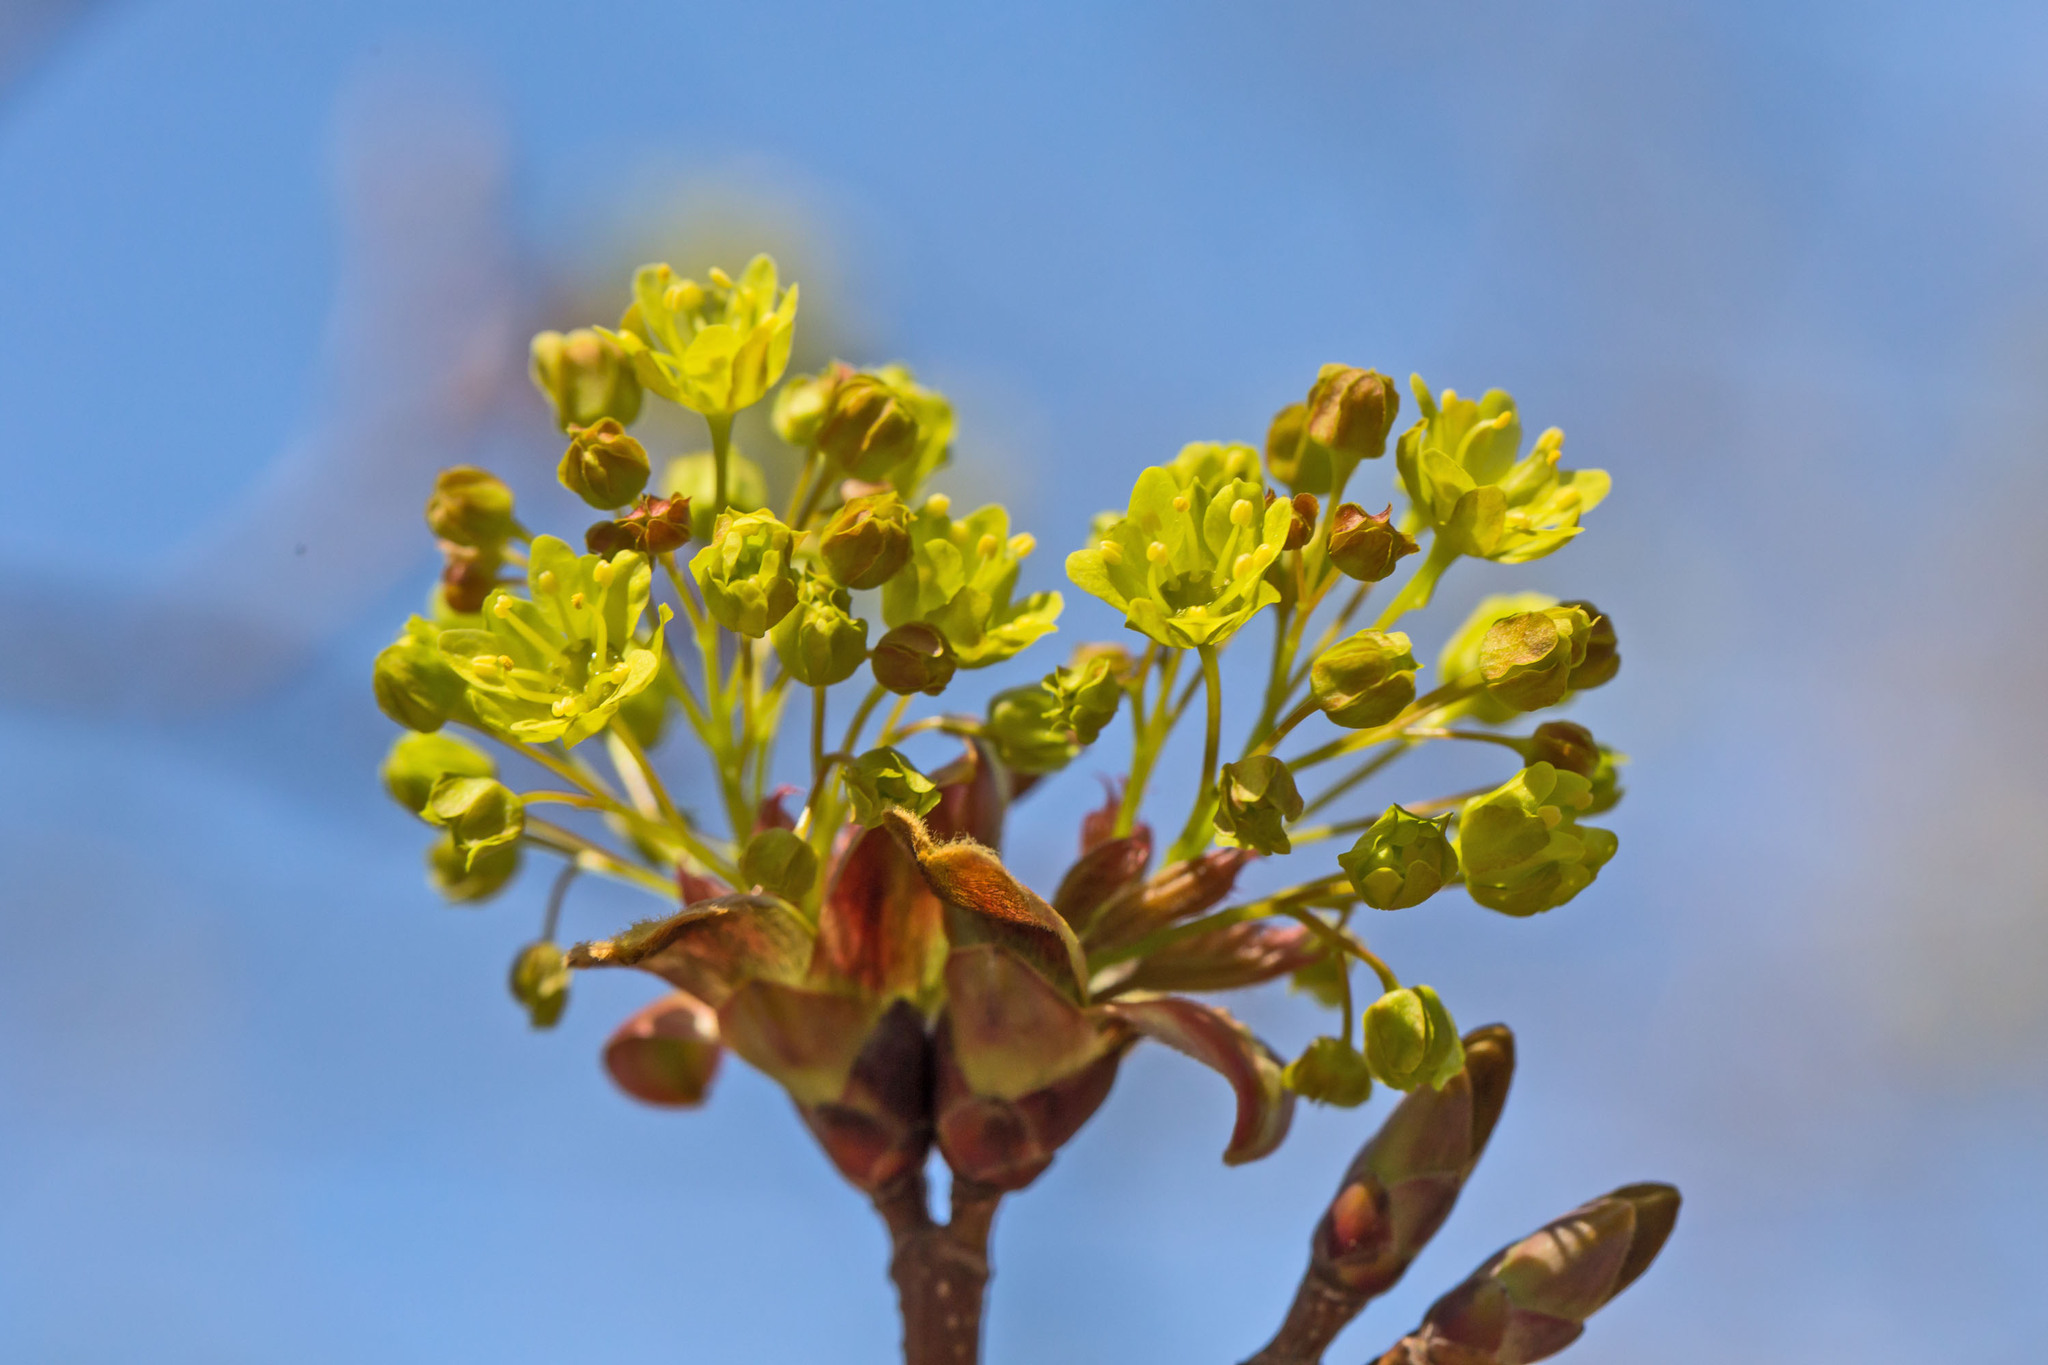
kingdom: Plantae
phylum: Tracheophyta
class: Magnoliopsida
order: Sapindales
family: Sapindaceae
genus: Acer
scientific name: Acer platanoides
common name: Norway maple
